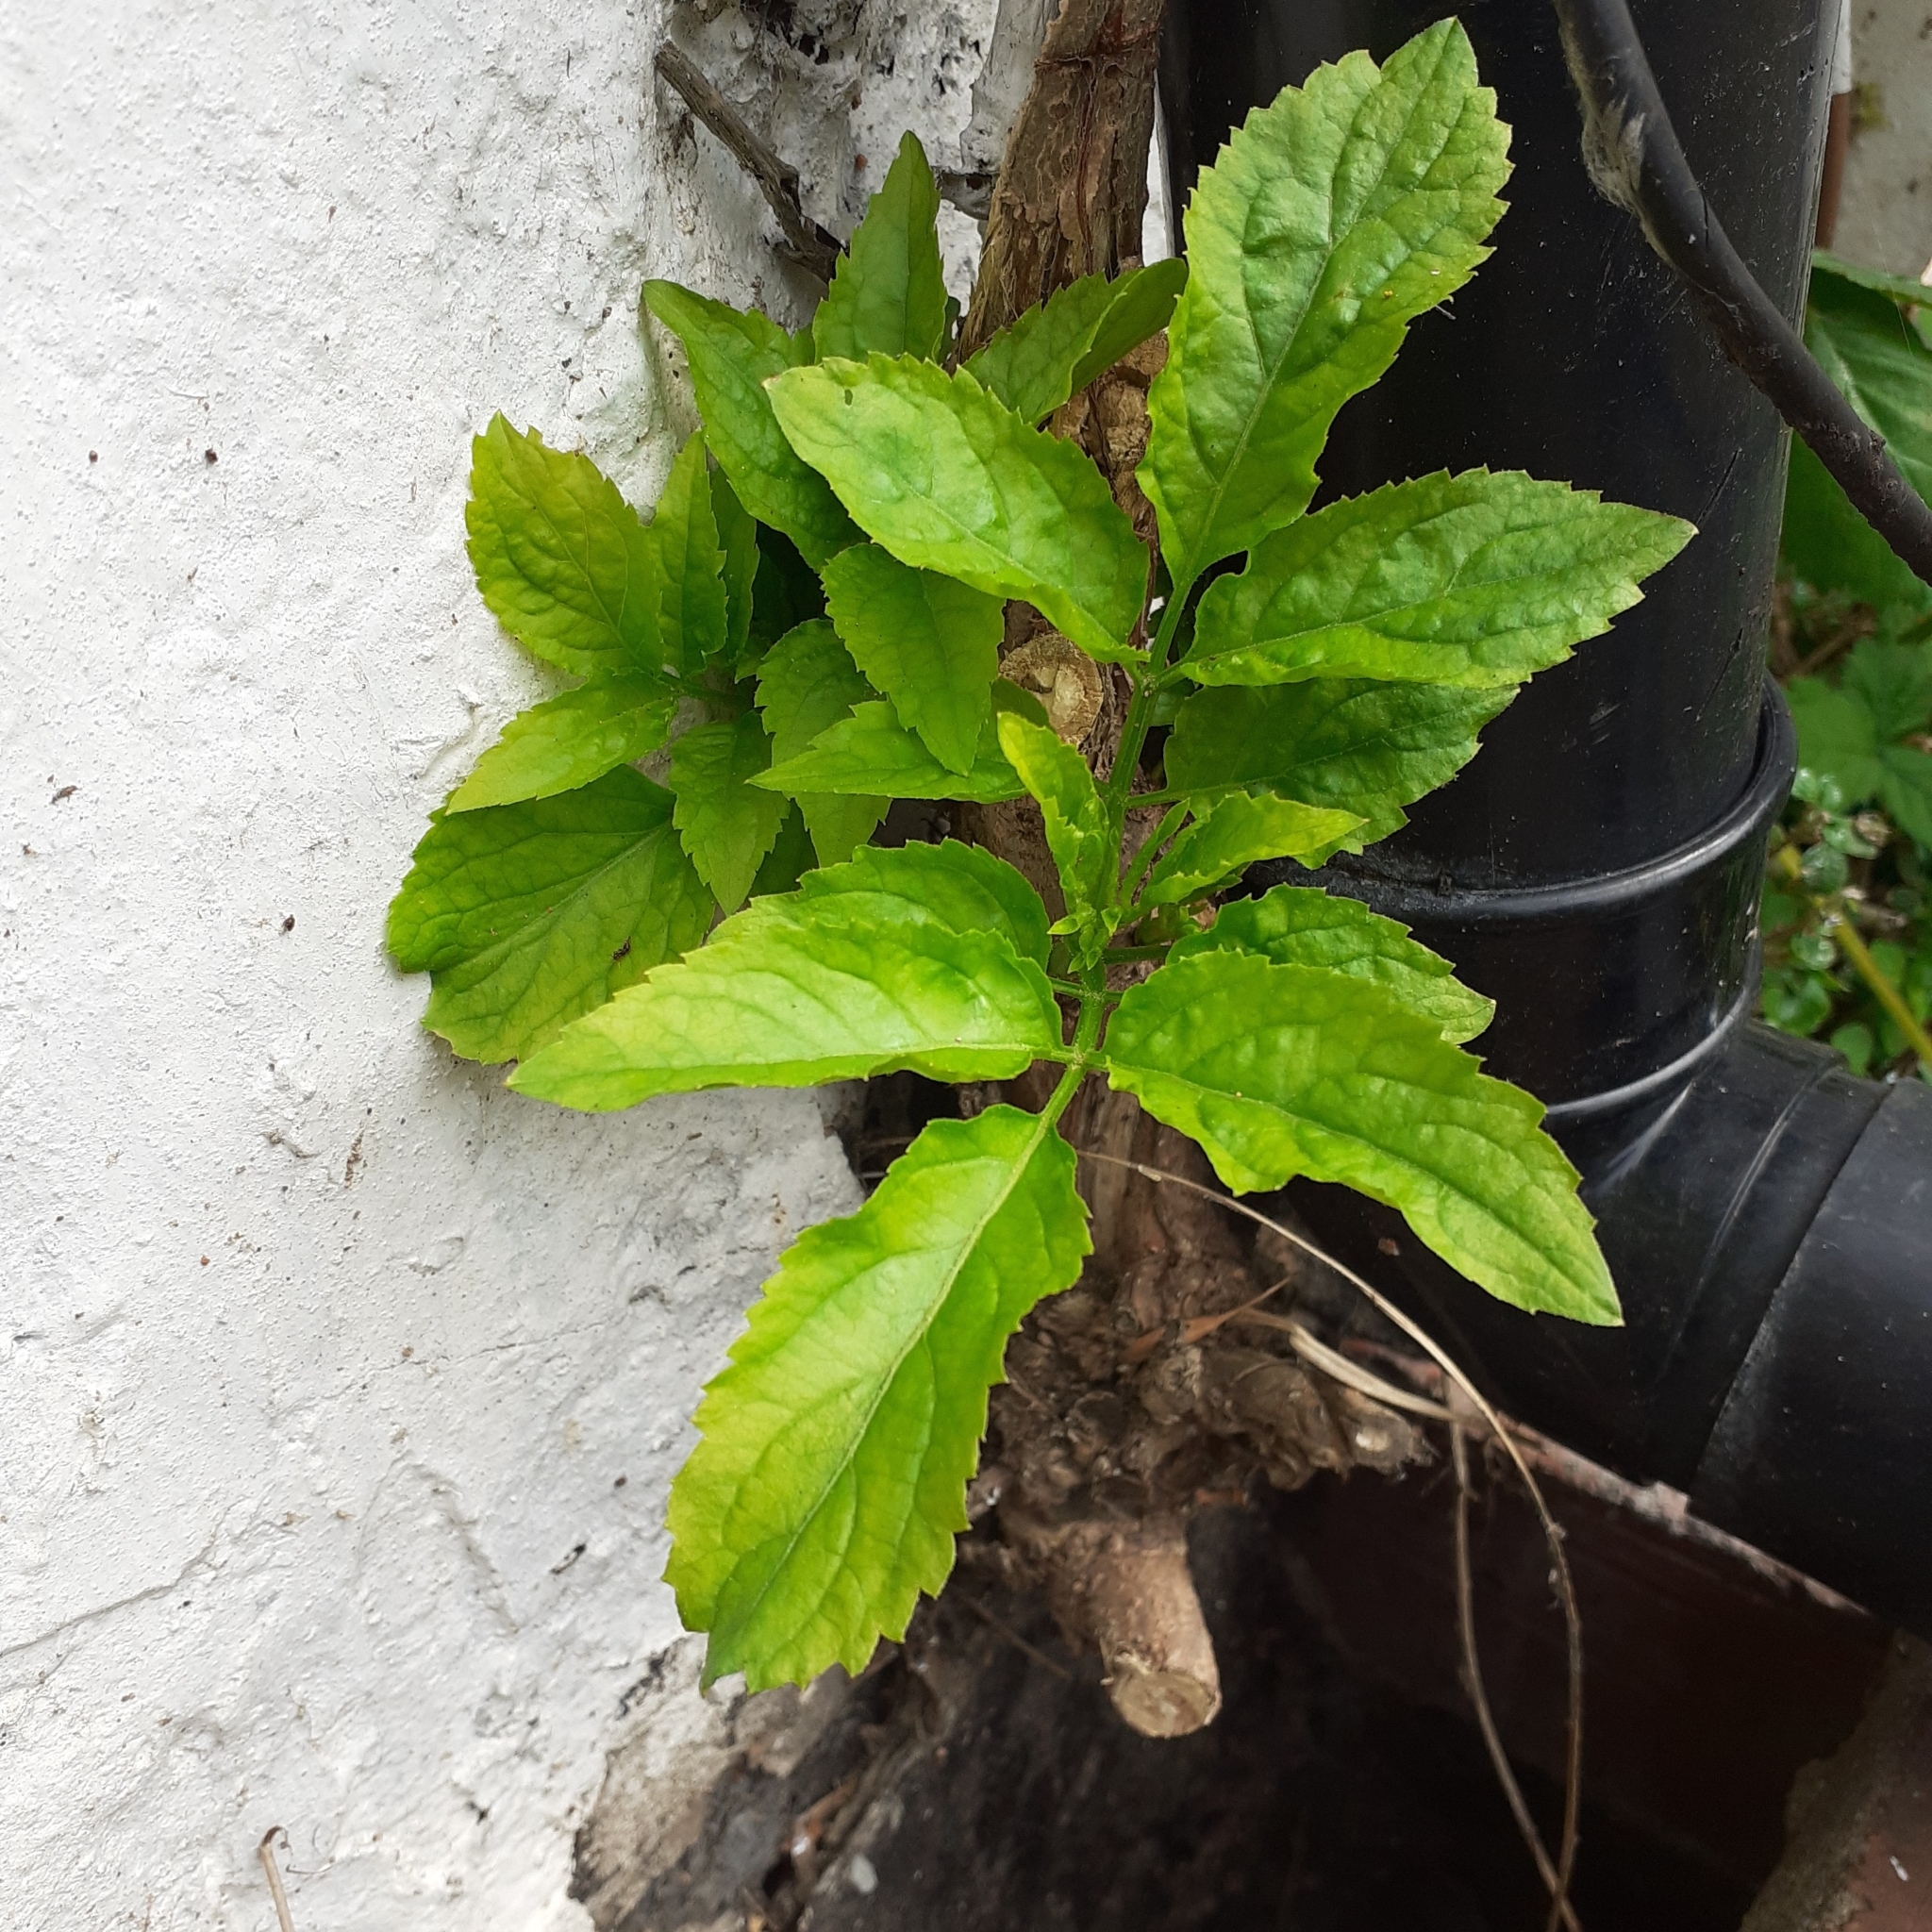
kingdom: Plantae
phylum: Tracheophyta
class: Magnoliopsida
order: Dipsacales
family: Viburnaceae
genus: Sambucus
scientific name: Sambucus nigra
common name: Elder
